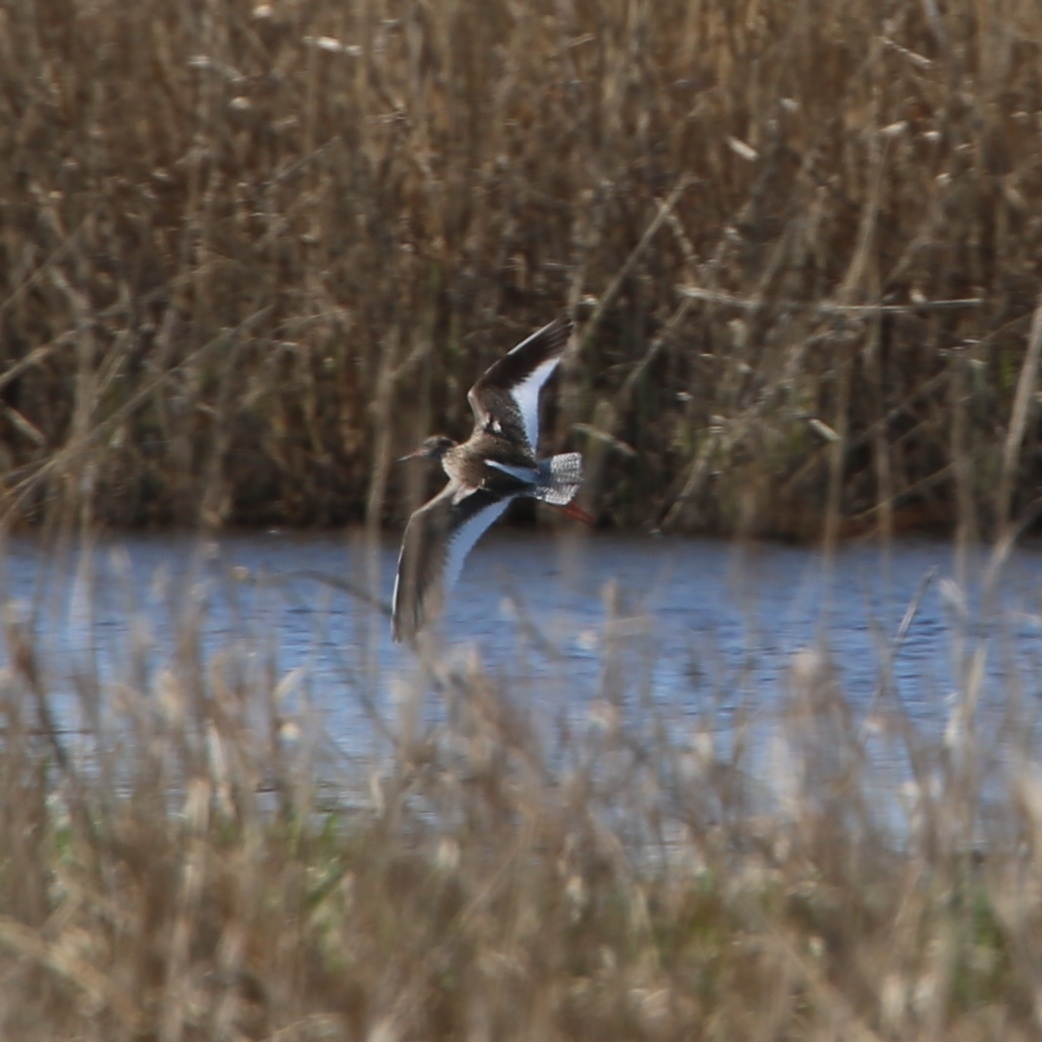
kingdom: Animalia
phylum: Chordata
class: Aves
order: Charadriiformes
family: Scolopacidae
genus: Tringa
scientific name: Tringa totanus
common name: Common redshank
